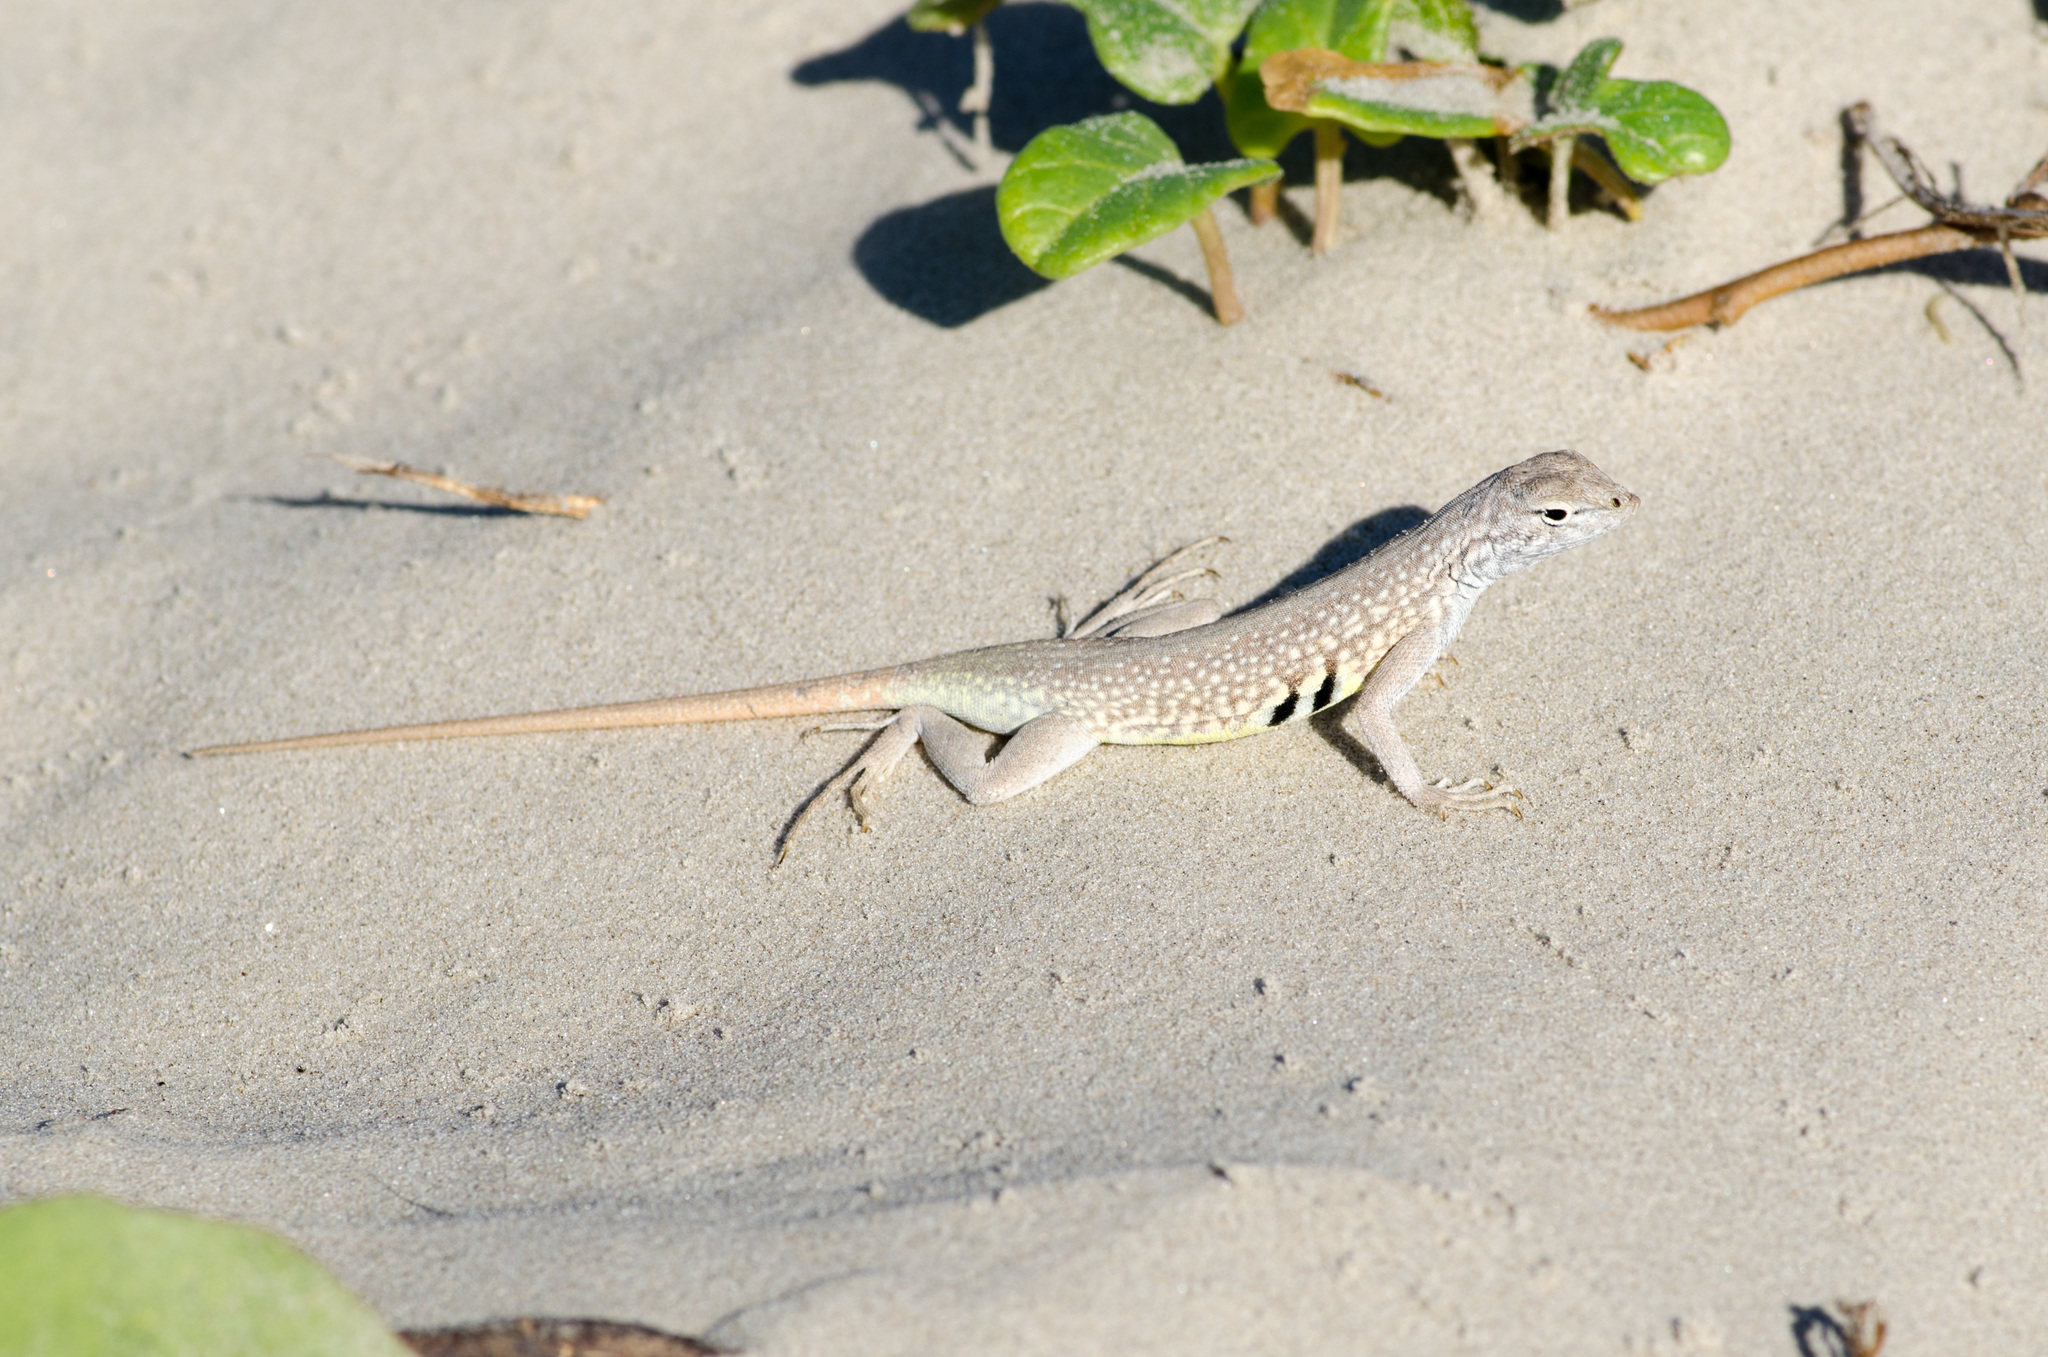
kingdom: Animalia
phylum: Chordata
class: Squamata
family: Phrynosomatidae
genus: Holbrookia
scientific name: Holbrookia propinqua
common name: Keeled earless lizard
